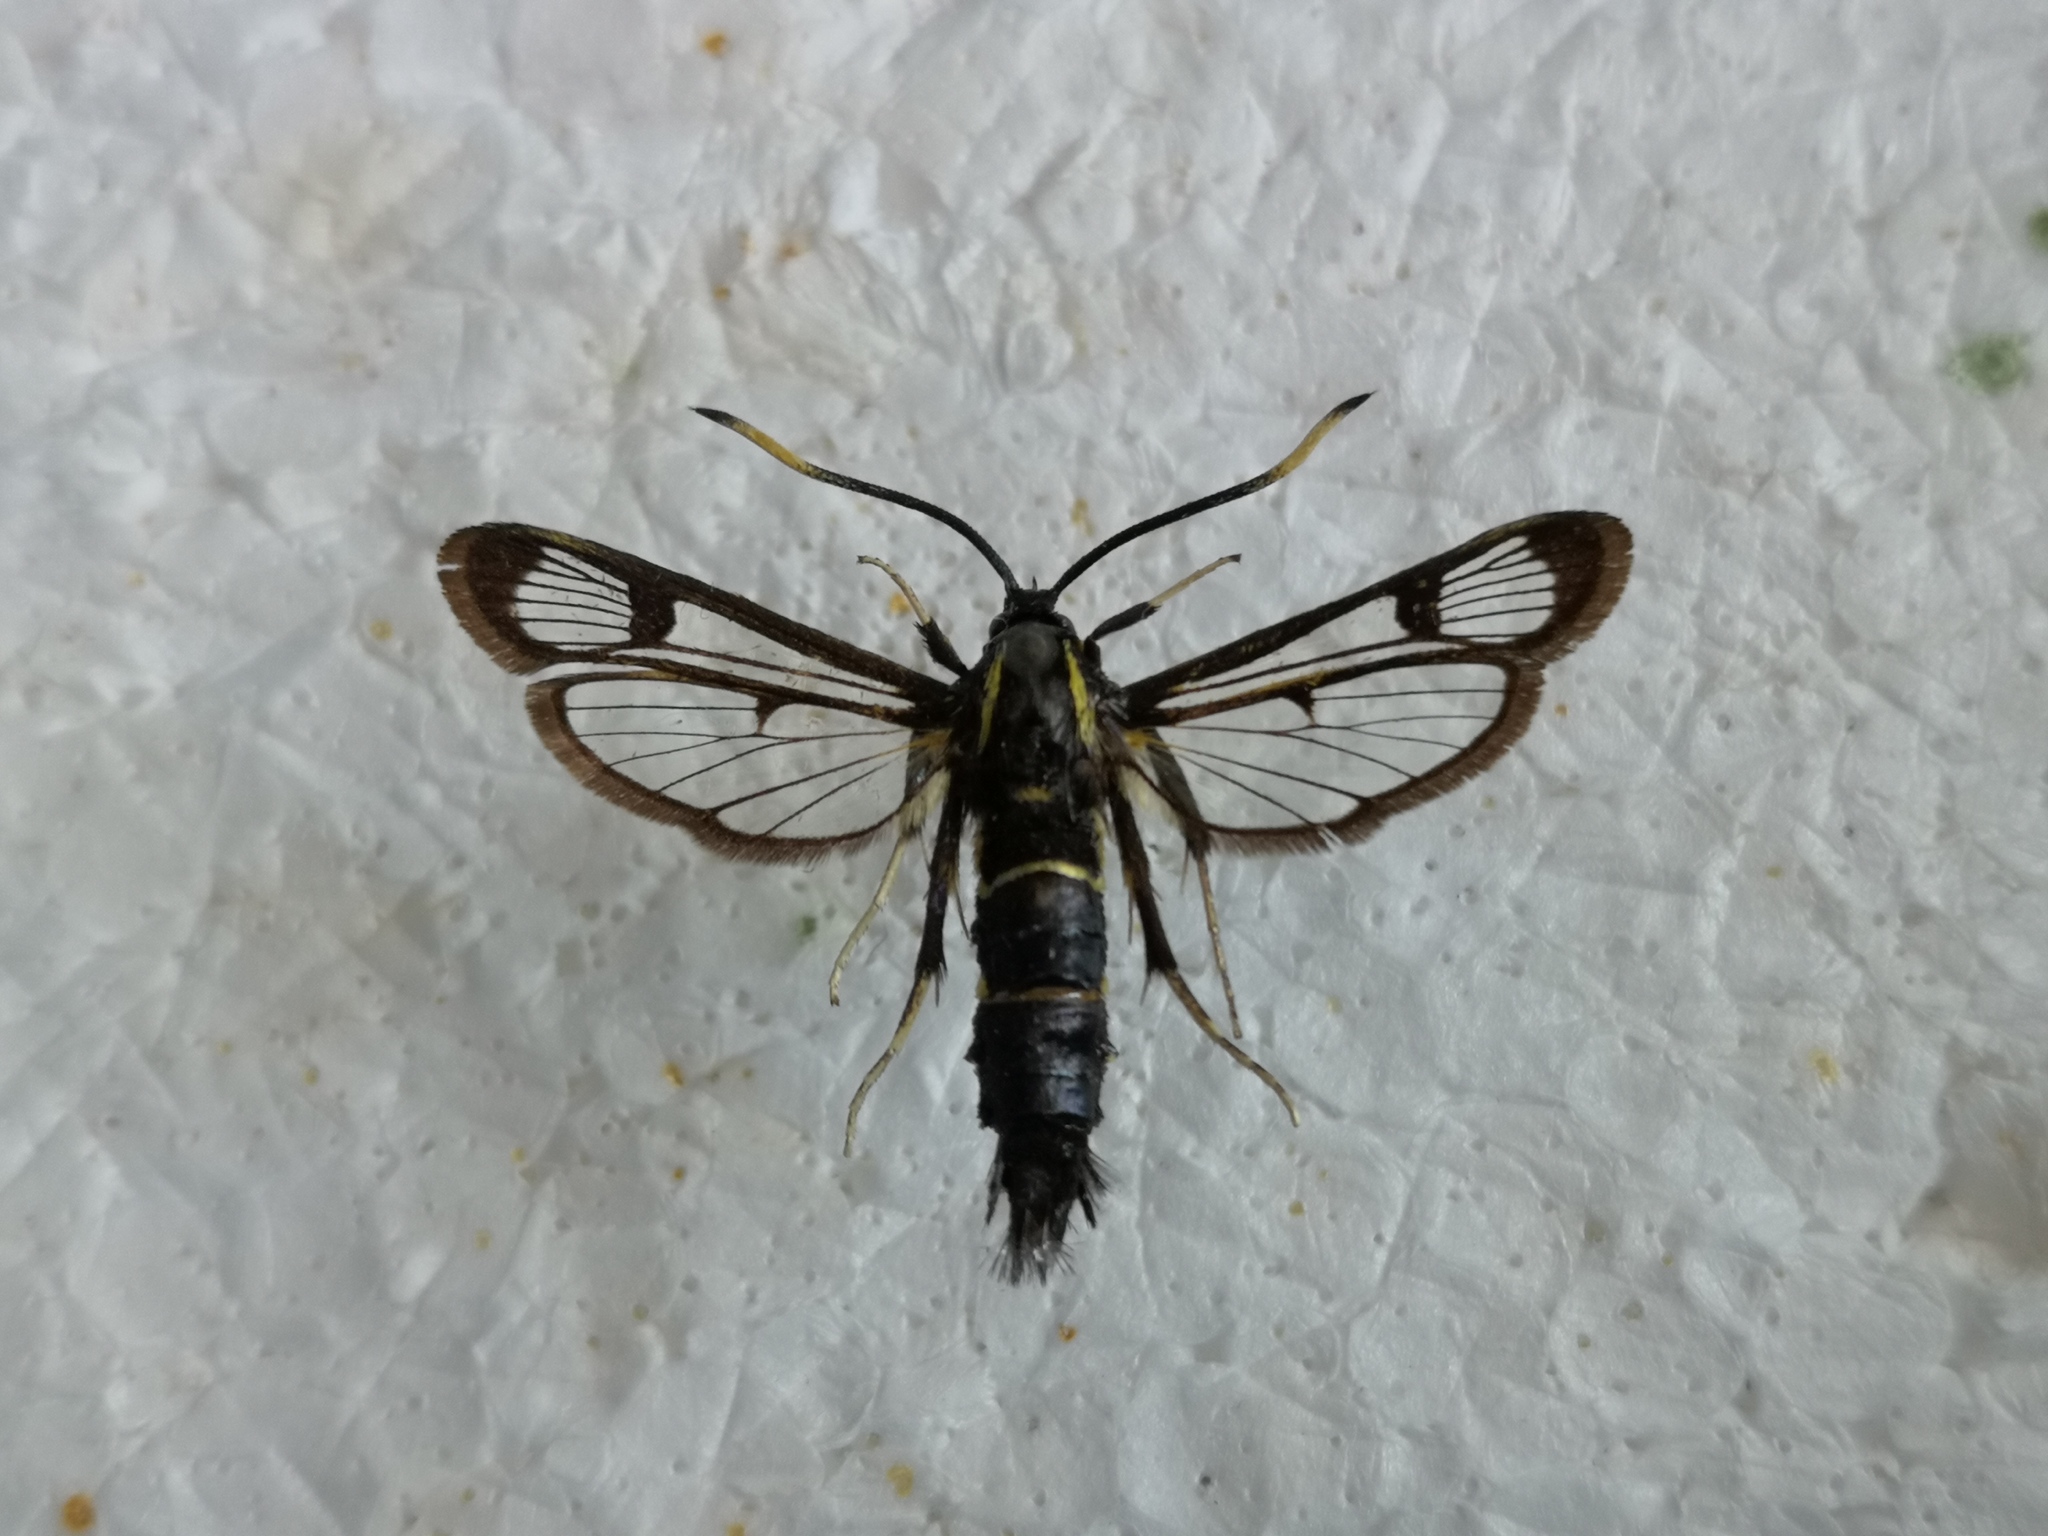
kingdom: Animalia
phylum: Arthropoda
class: Insecta
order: Lepidoptera
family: Sesiidae
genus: Synanthedon
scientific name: Synanthedon spheciformis
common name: White-barred clearwing
